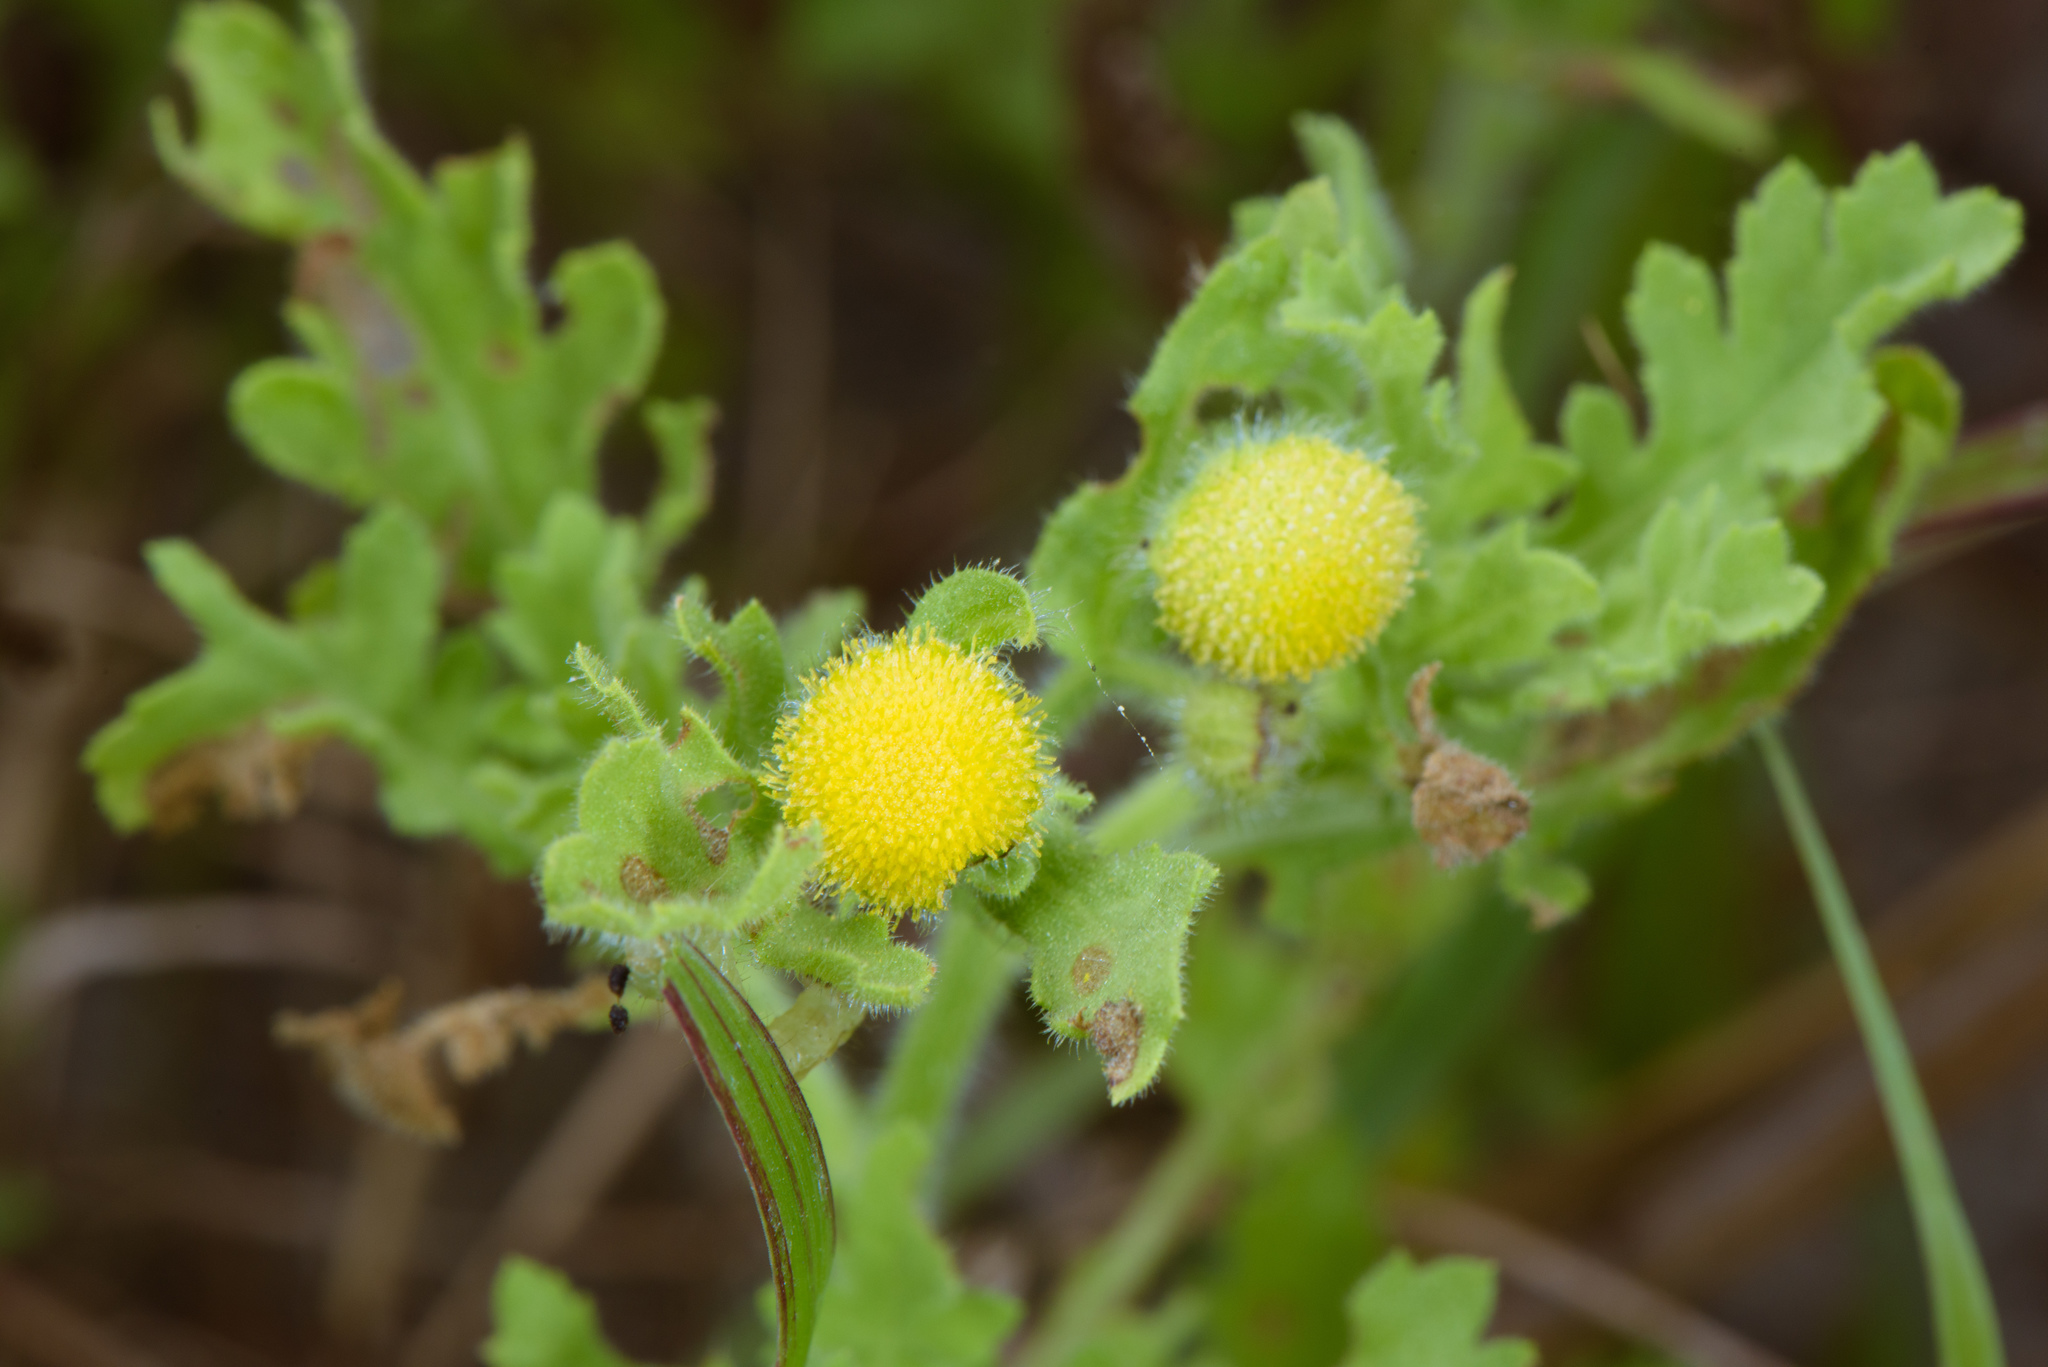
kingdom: Plantae
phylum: Tracheophyta
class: Magnoliopsida
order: Asterales
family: Asteraceae
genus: Grangea
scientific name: Grangea maderaspatana
